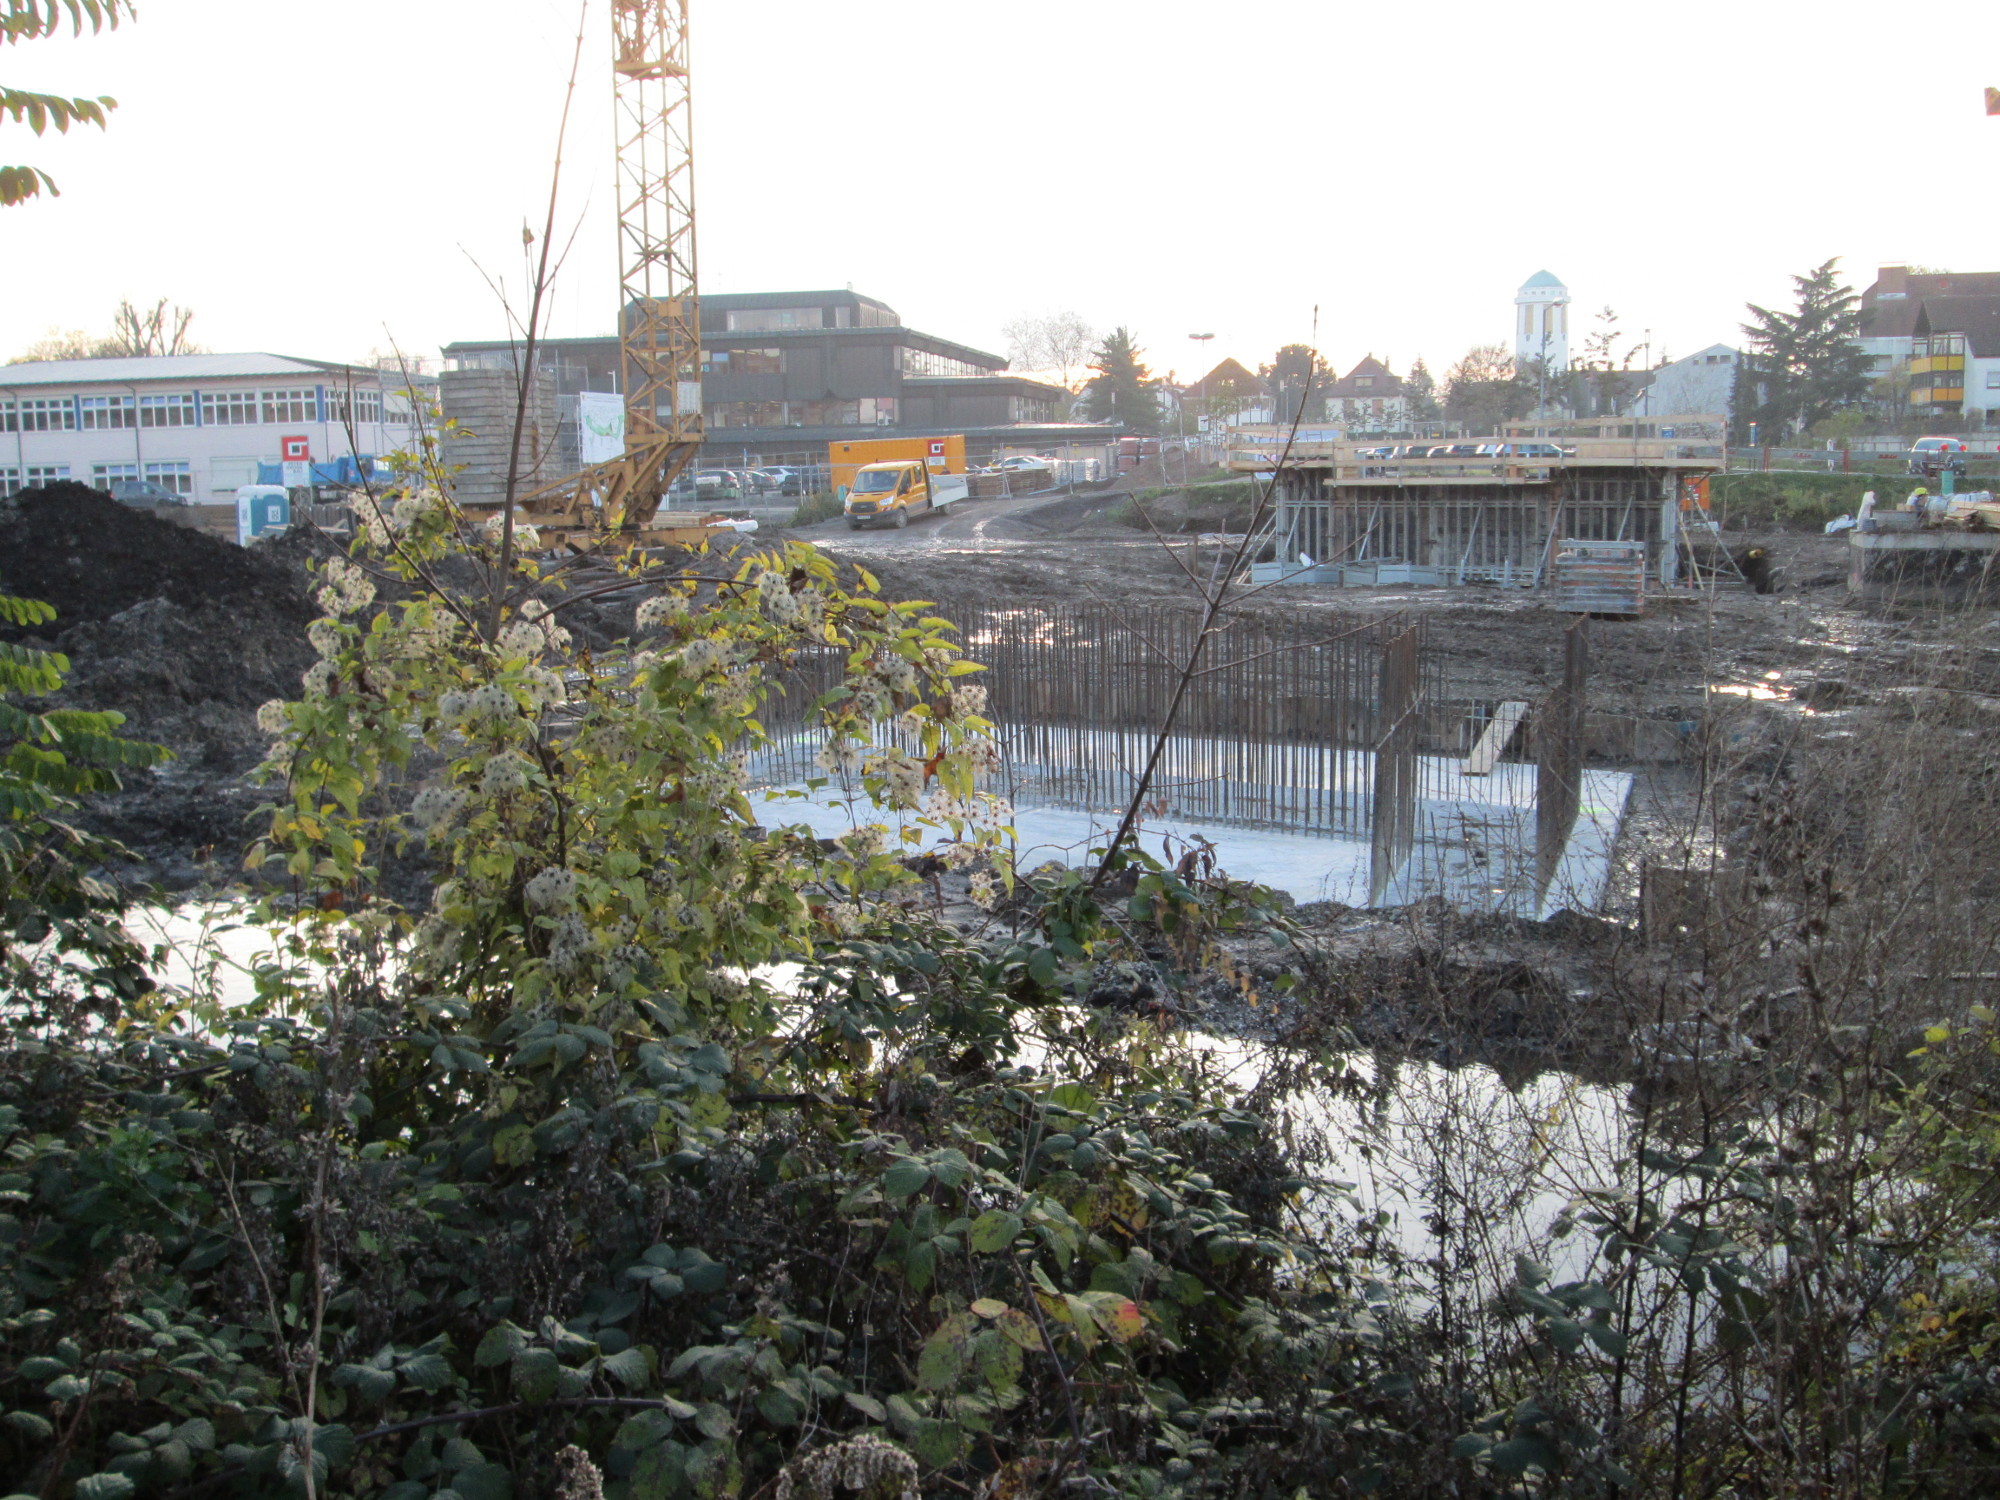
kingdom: Plantae
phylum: Tracheophyta
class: Magnoliopsida
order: Ranunculales
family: Ranunculaceae
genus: Clematis
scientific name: Clematis vitalba
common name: Evergreen clematis
